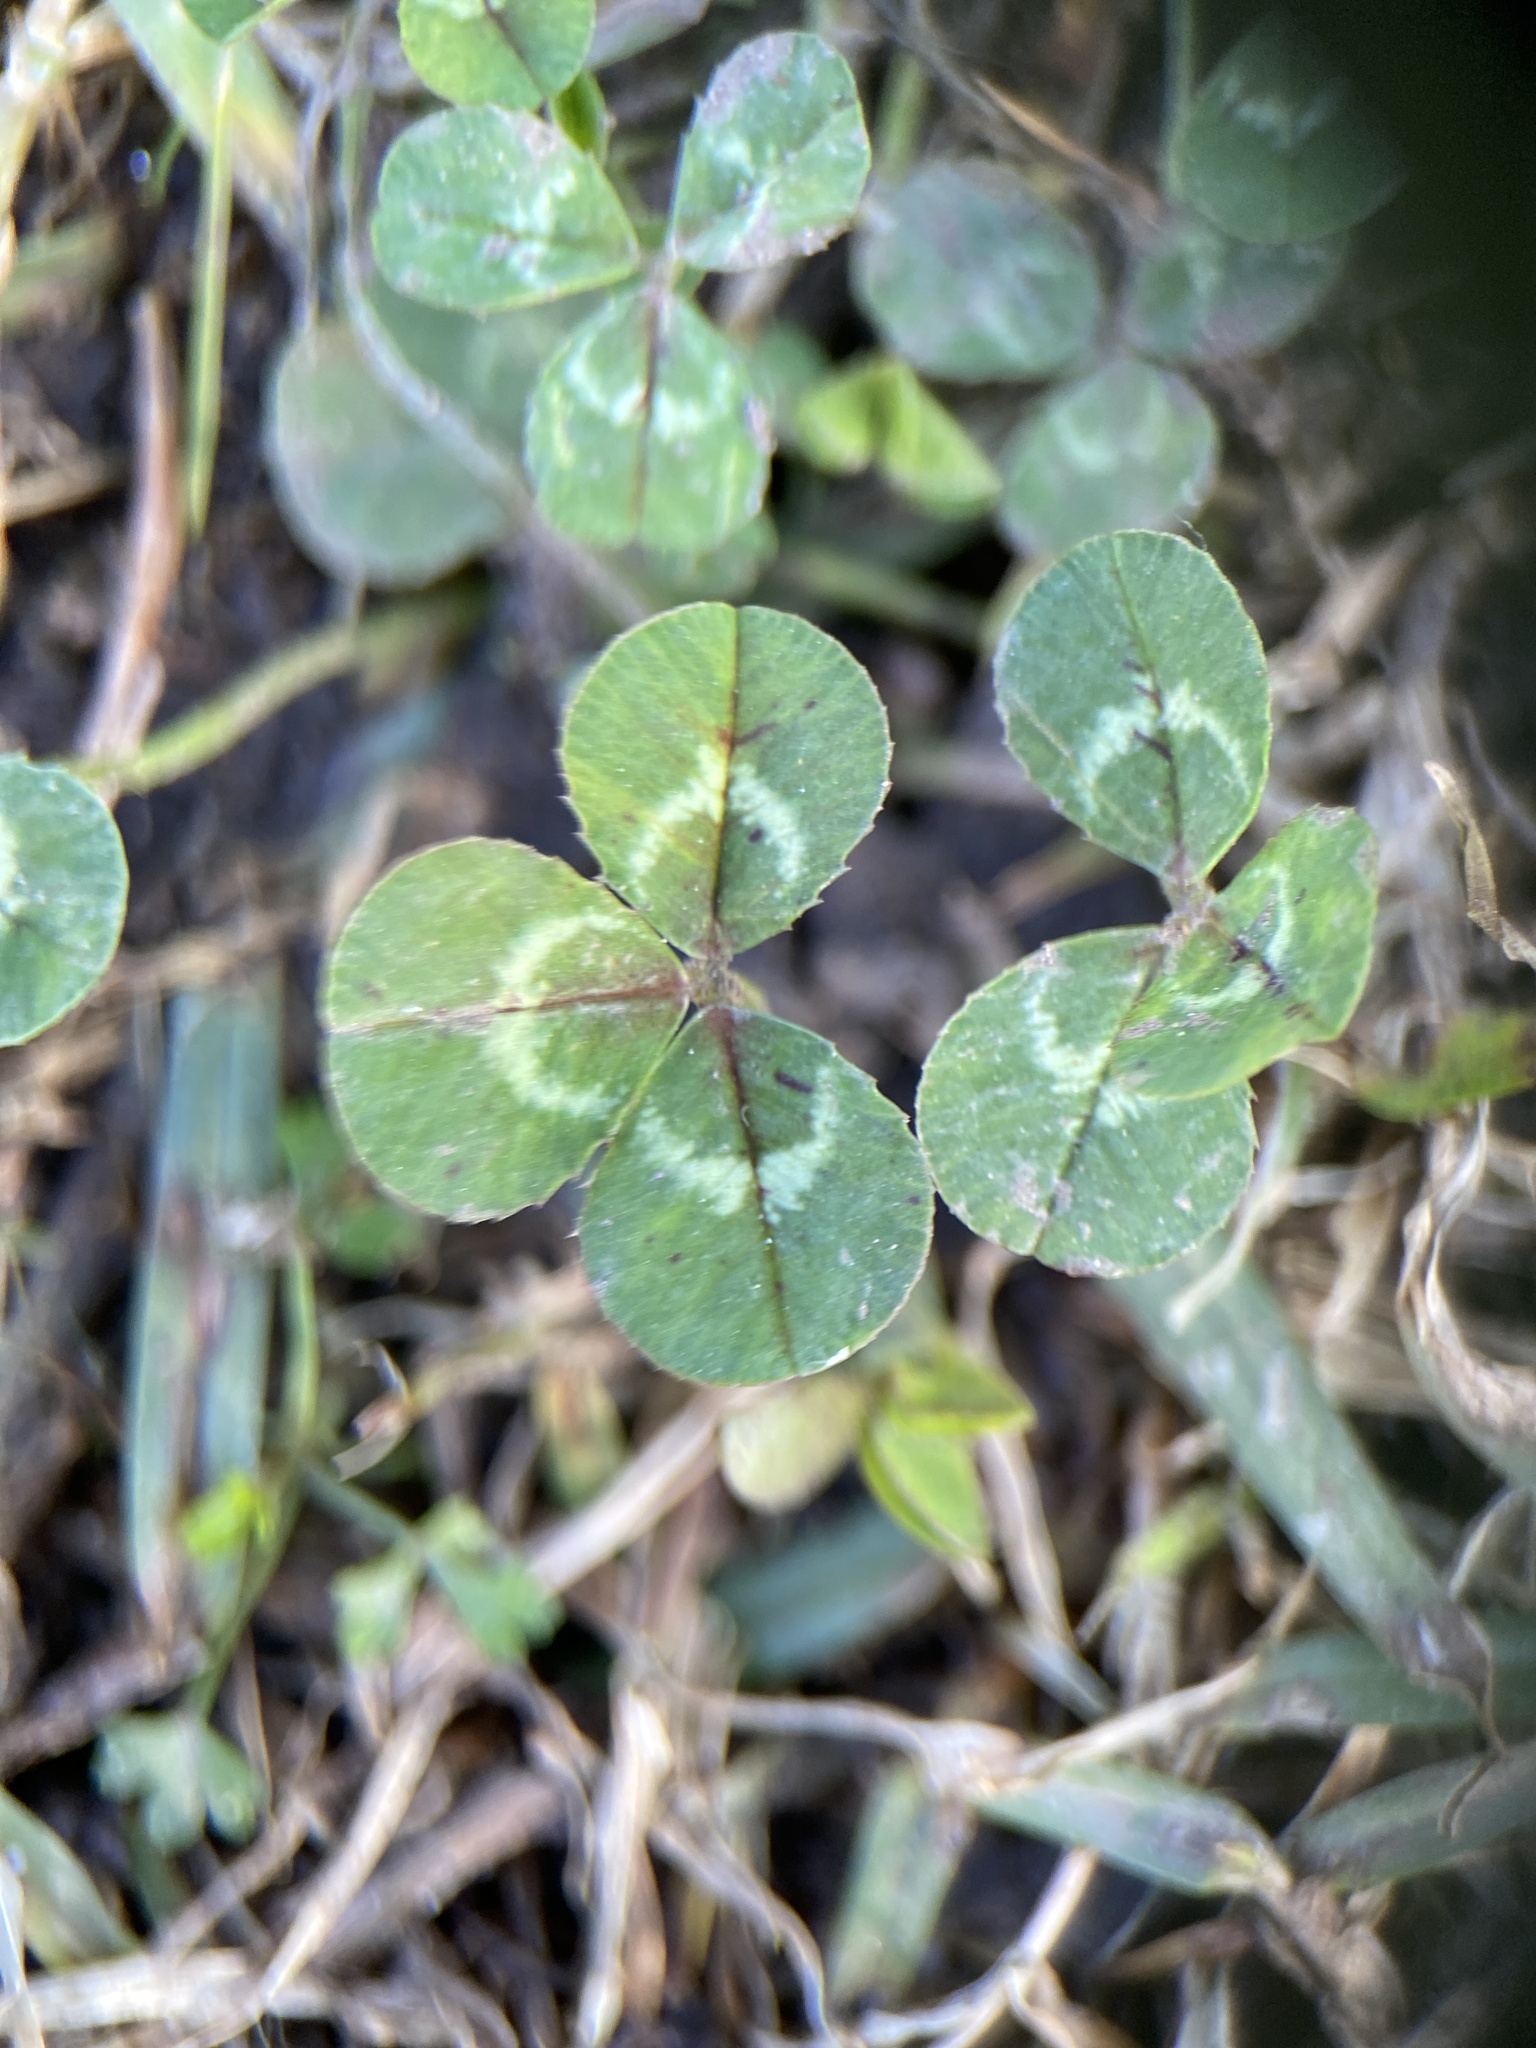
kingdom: Plantae
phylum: Tracheophyta
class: Magnoliopsida
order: Fabales
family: Fabaceae
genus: Trifolium
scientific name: Trifolium repens
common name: White clover
